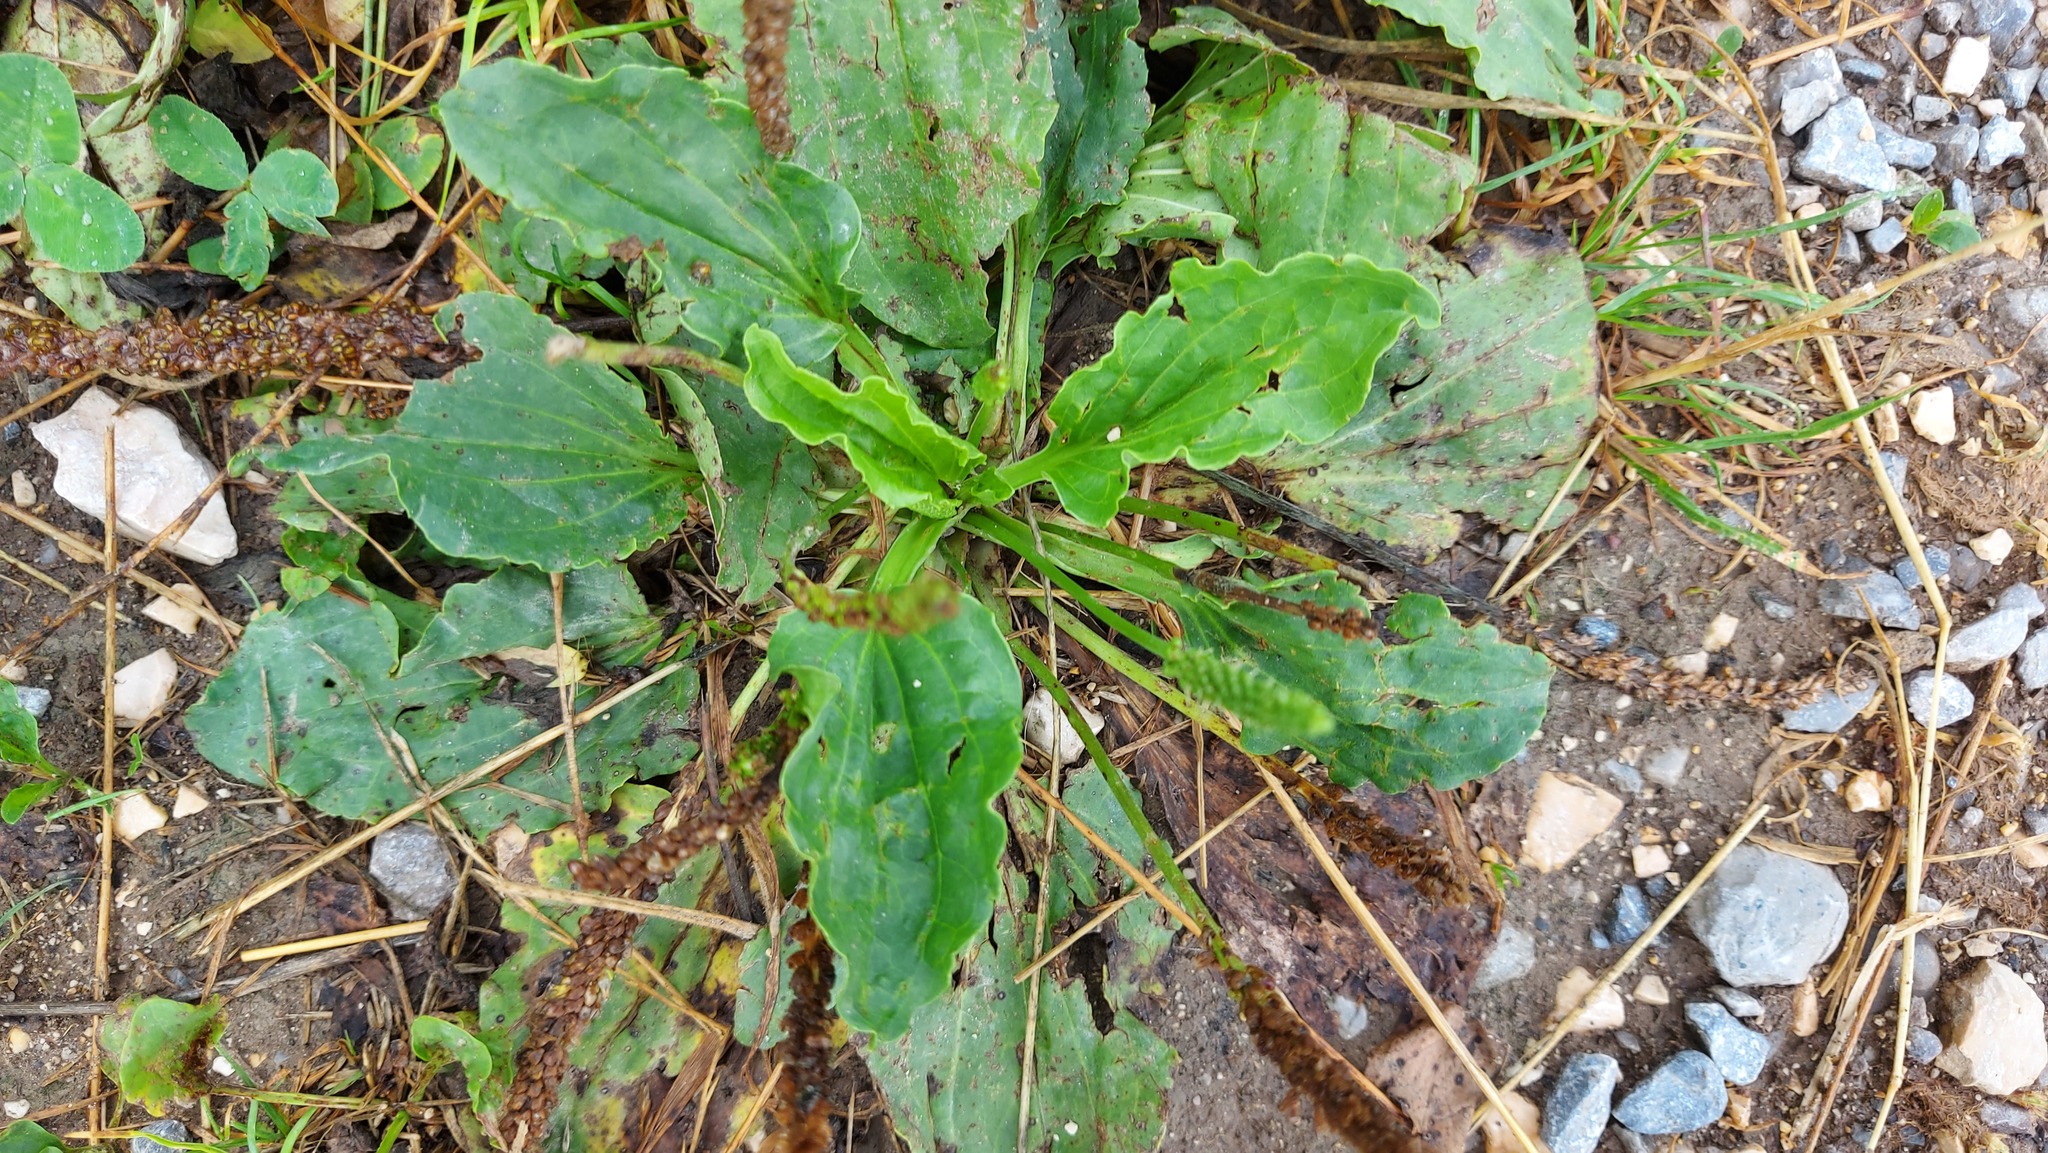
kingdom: Plantae
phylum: Tracheophyta
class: Magnoliopsida
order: Lamiales
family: Plantaginaceae
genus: Plantago
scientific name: Plantago major
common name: Common plantain
